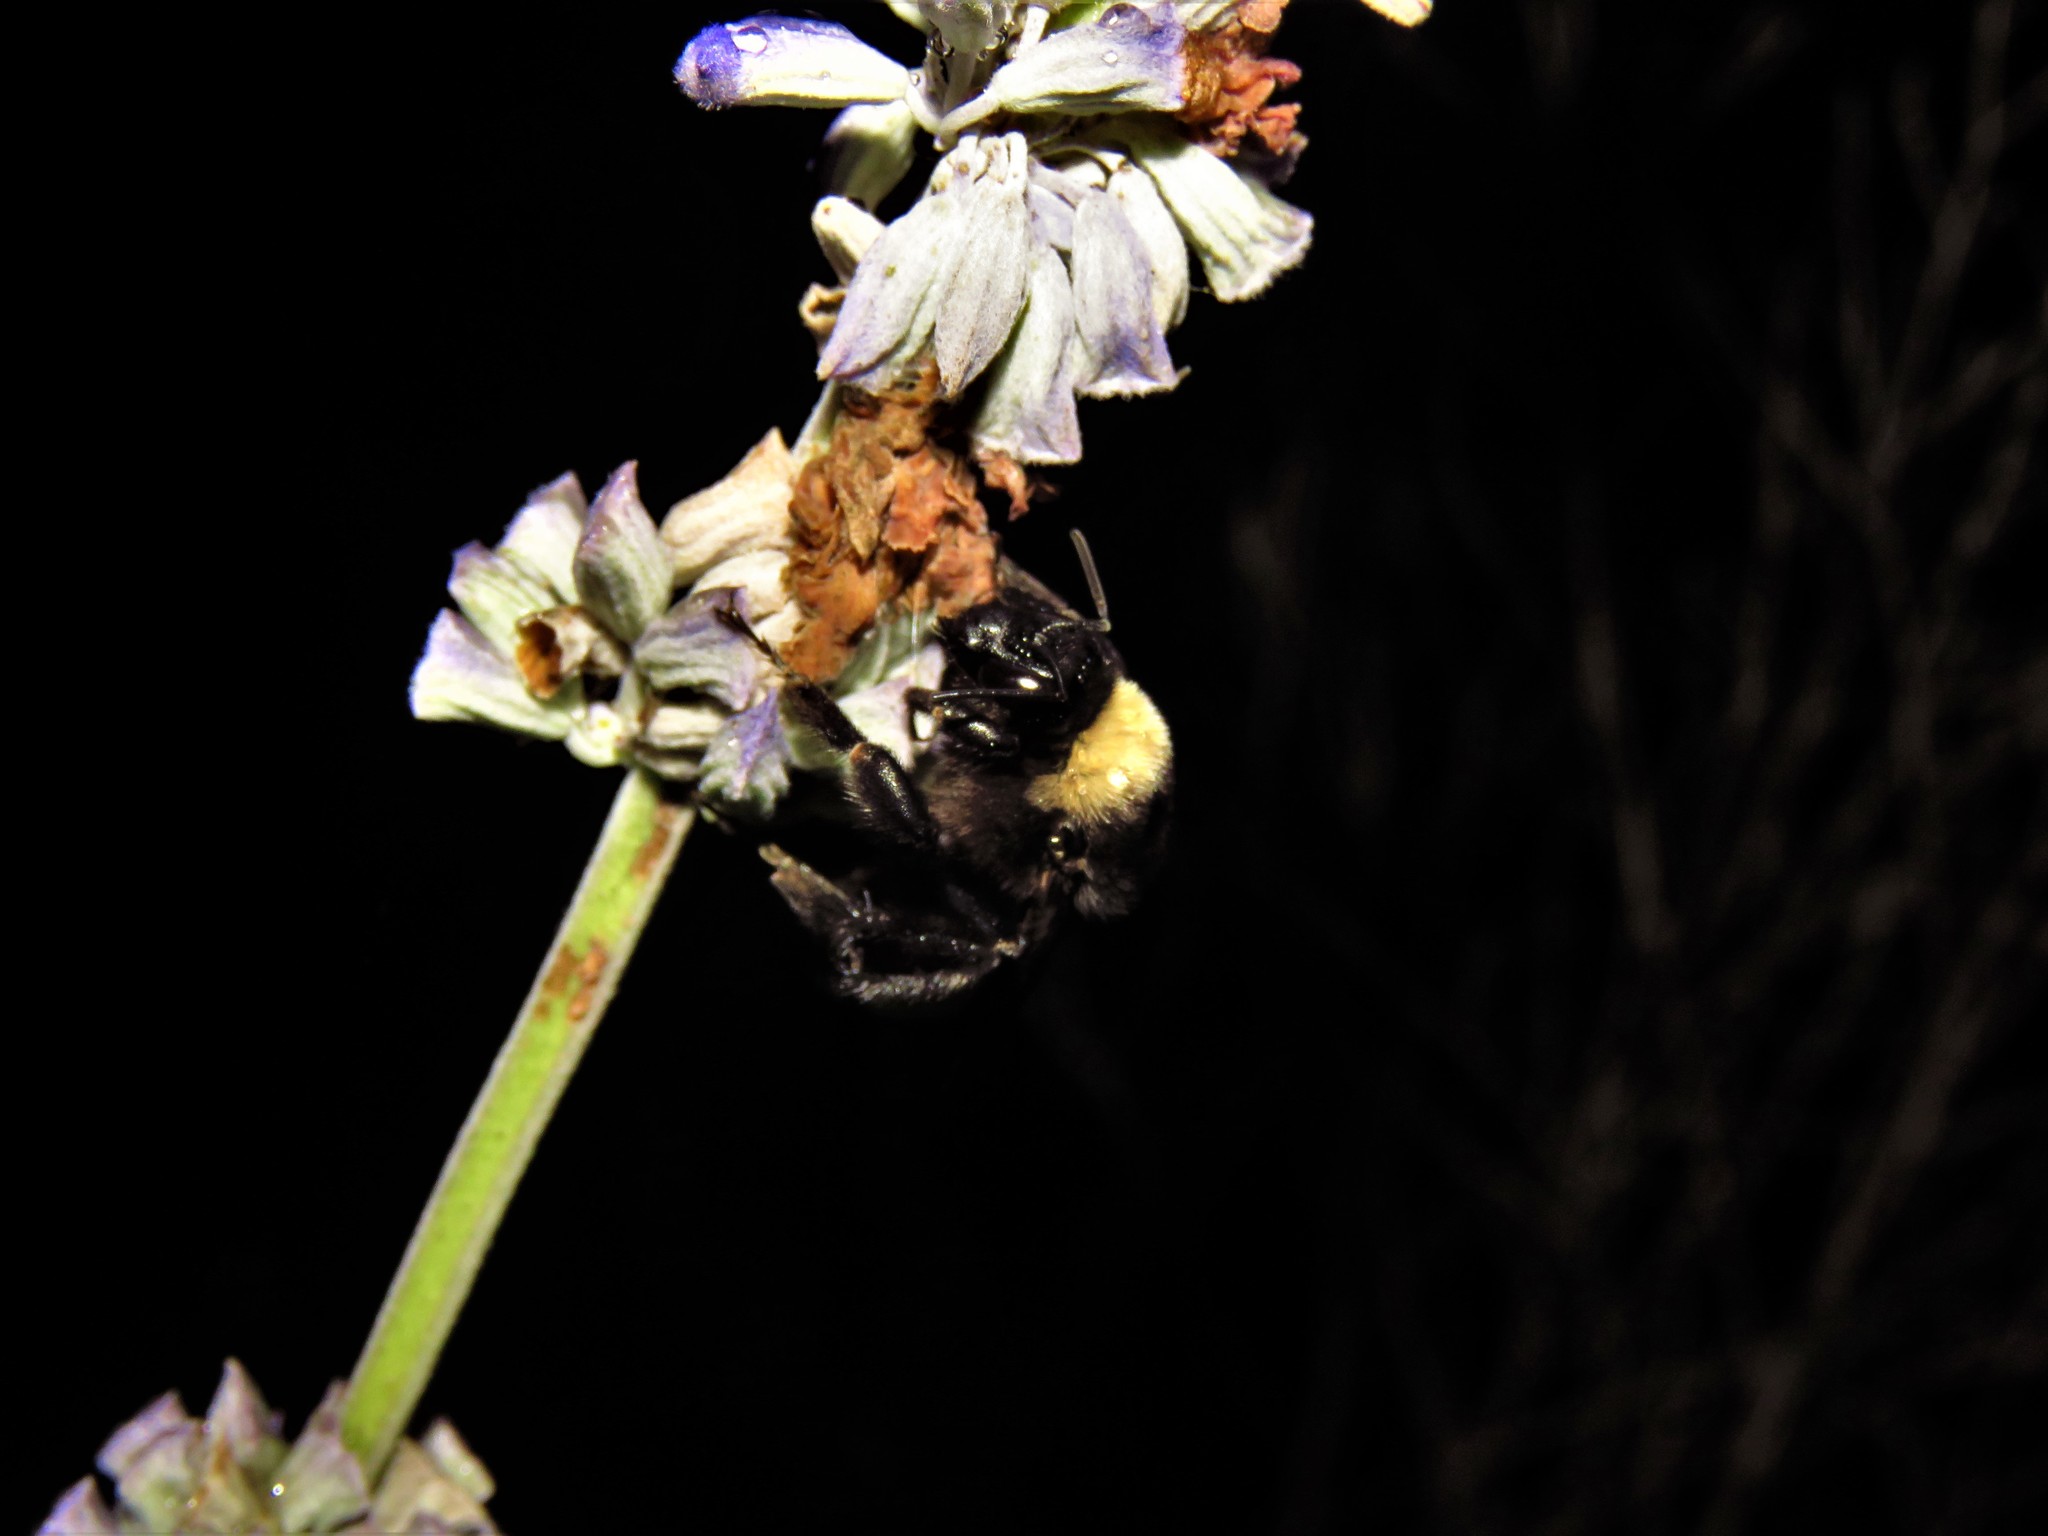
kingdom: Animalia
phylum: Arthropoda
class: Insecta
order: Hymenoptera
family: Apidae
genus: Bombus
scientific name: Bombus pensylvanicus
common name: Bumble bee
